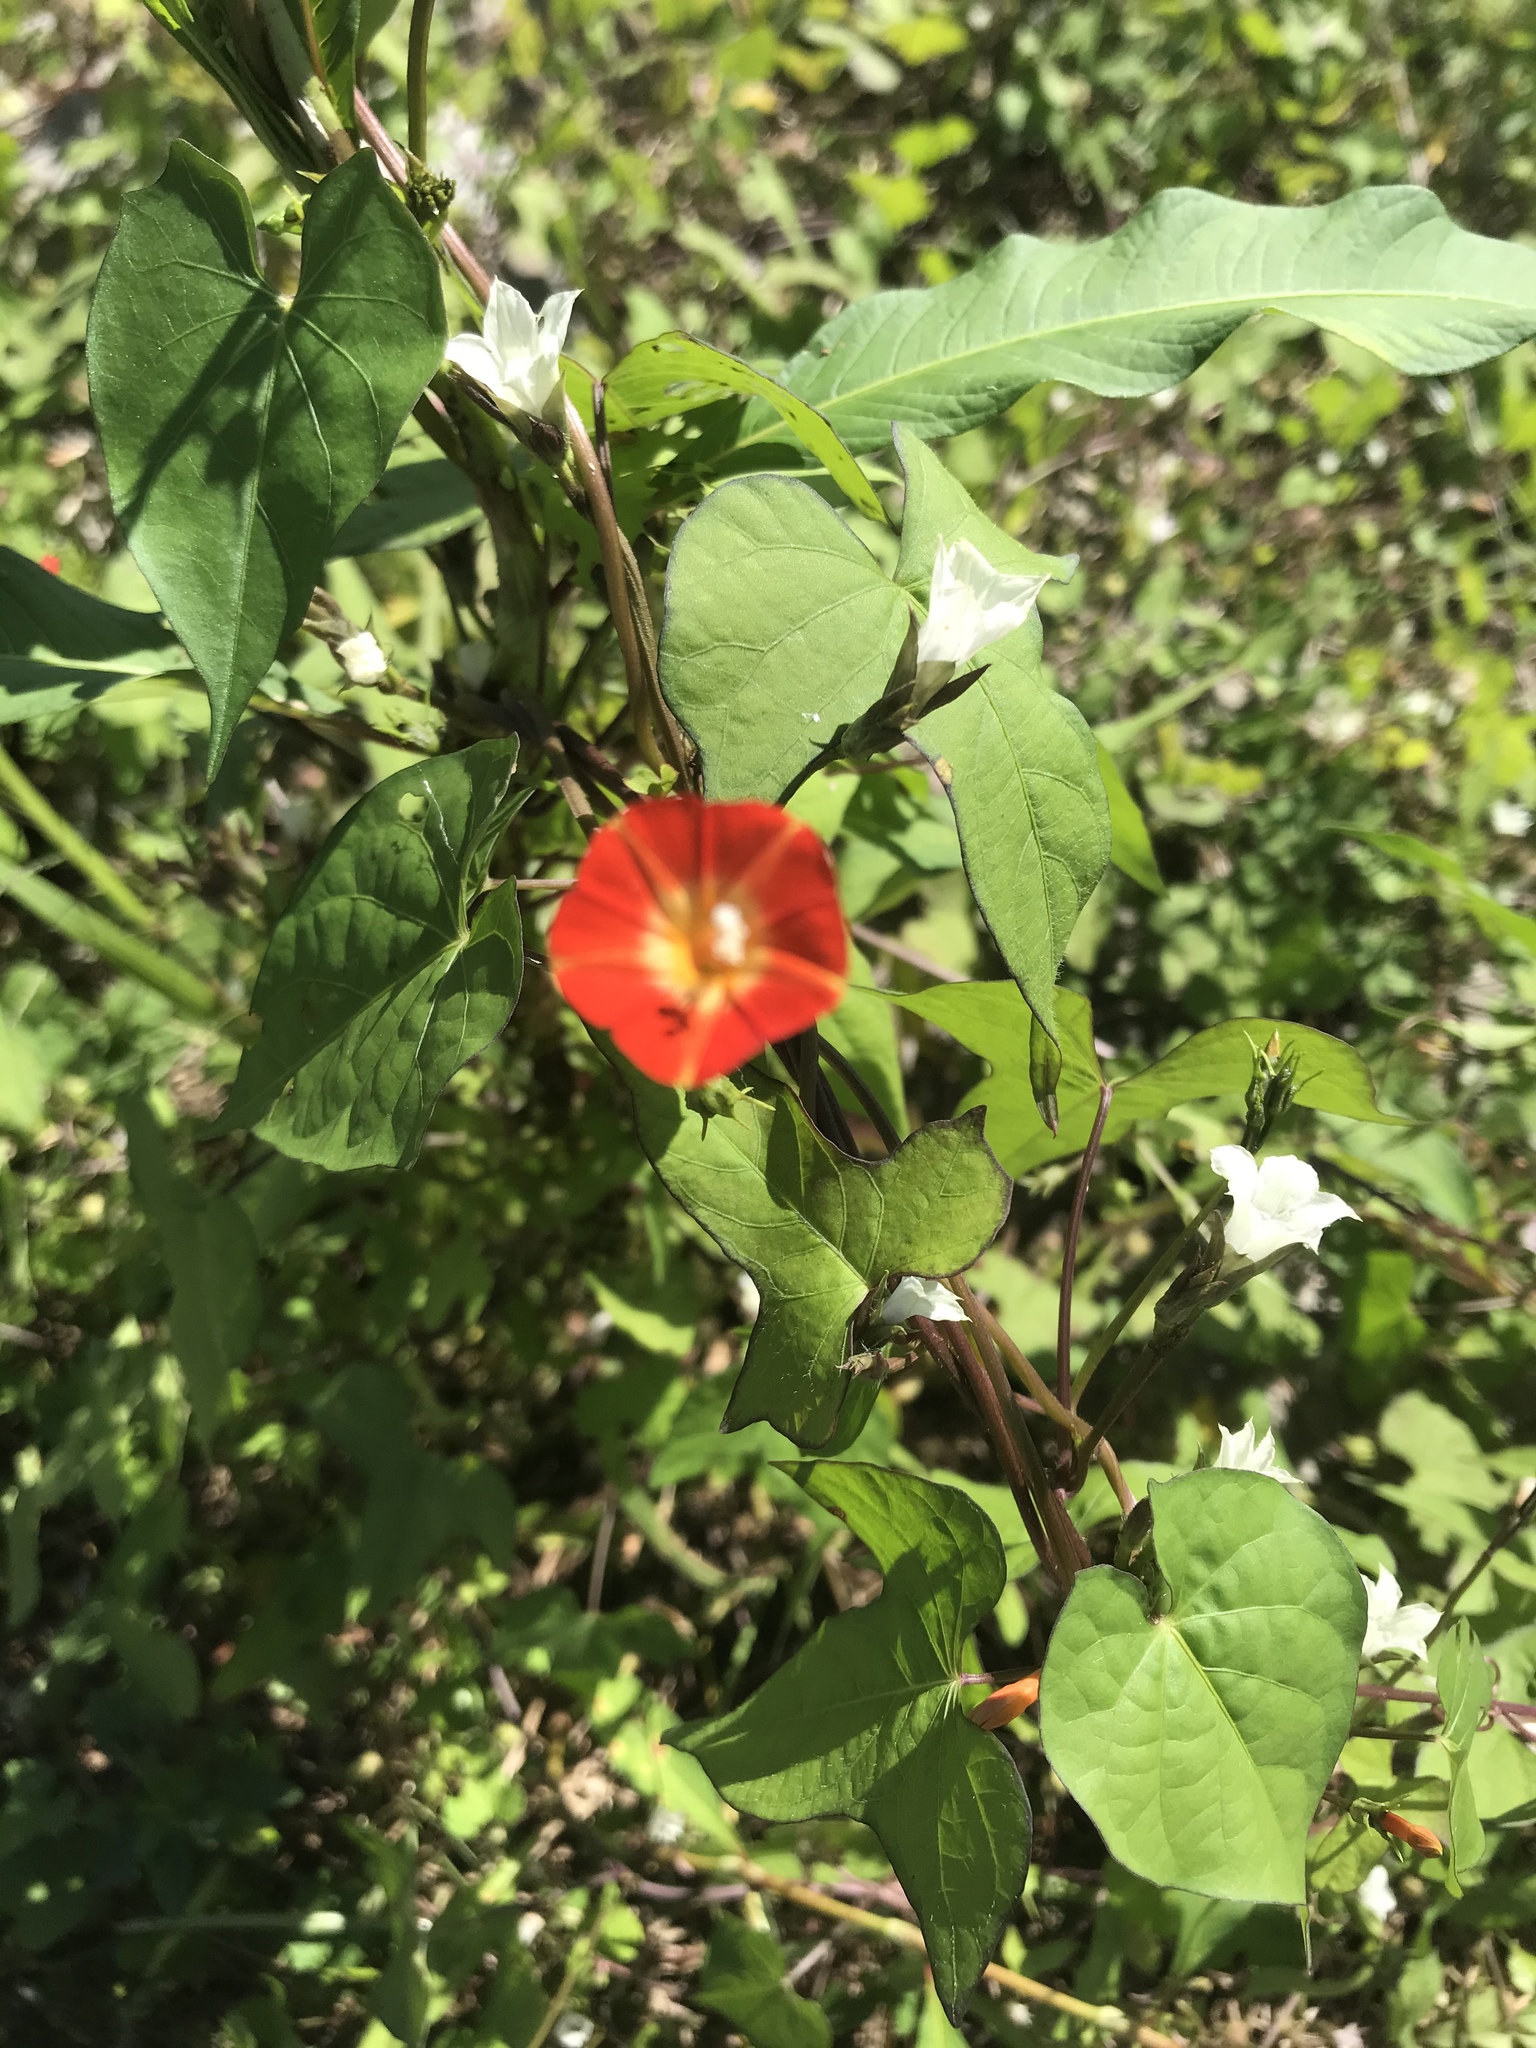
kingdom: Plantae
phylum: Tracheophyta
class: Magnoliopsida
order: Solanales
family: Convolvulaceae
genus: Ipomoea
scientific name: Ipomoea coccinea
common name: Red morning-glory
